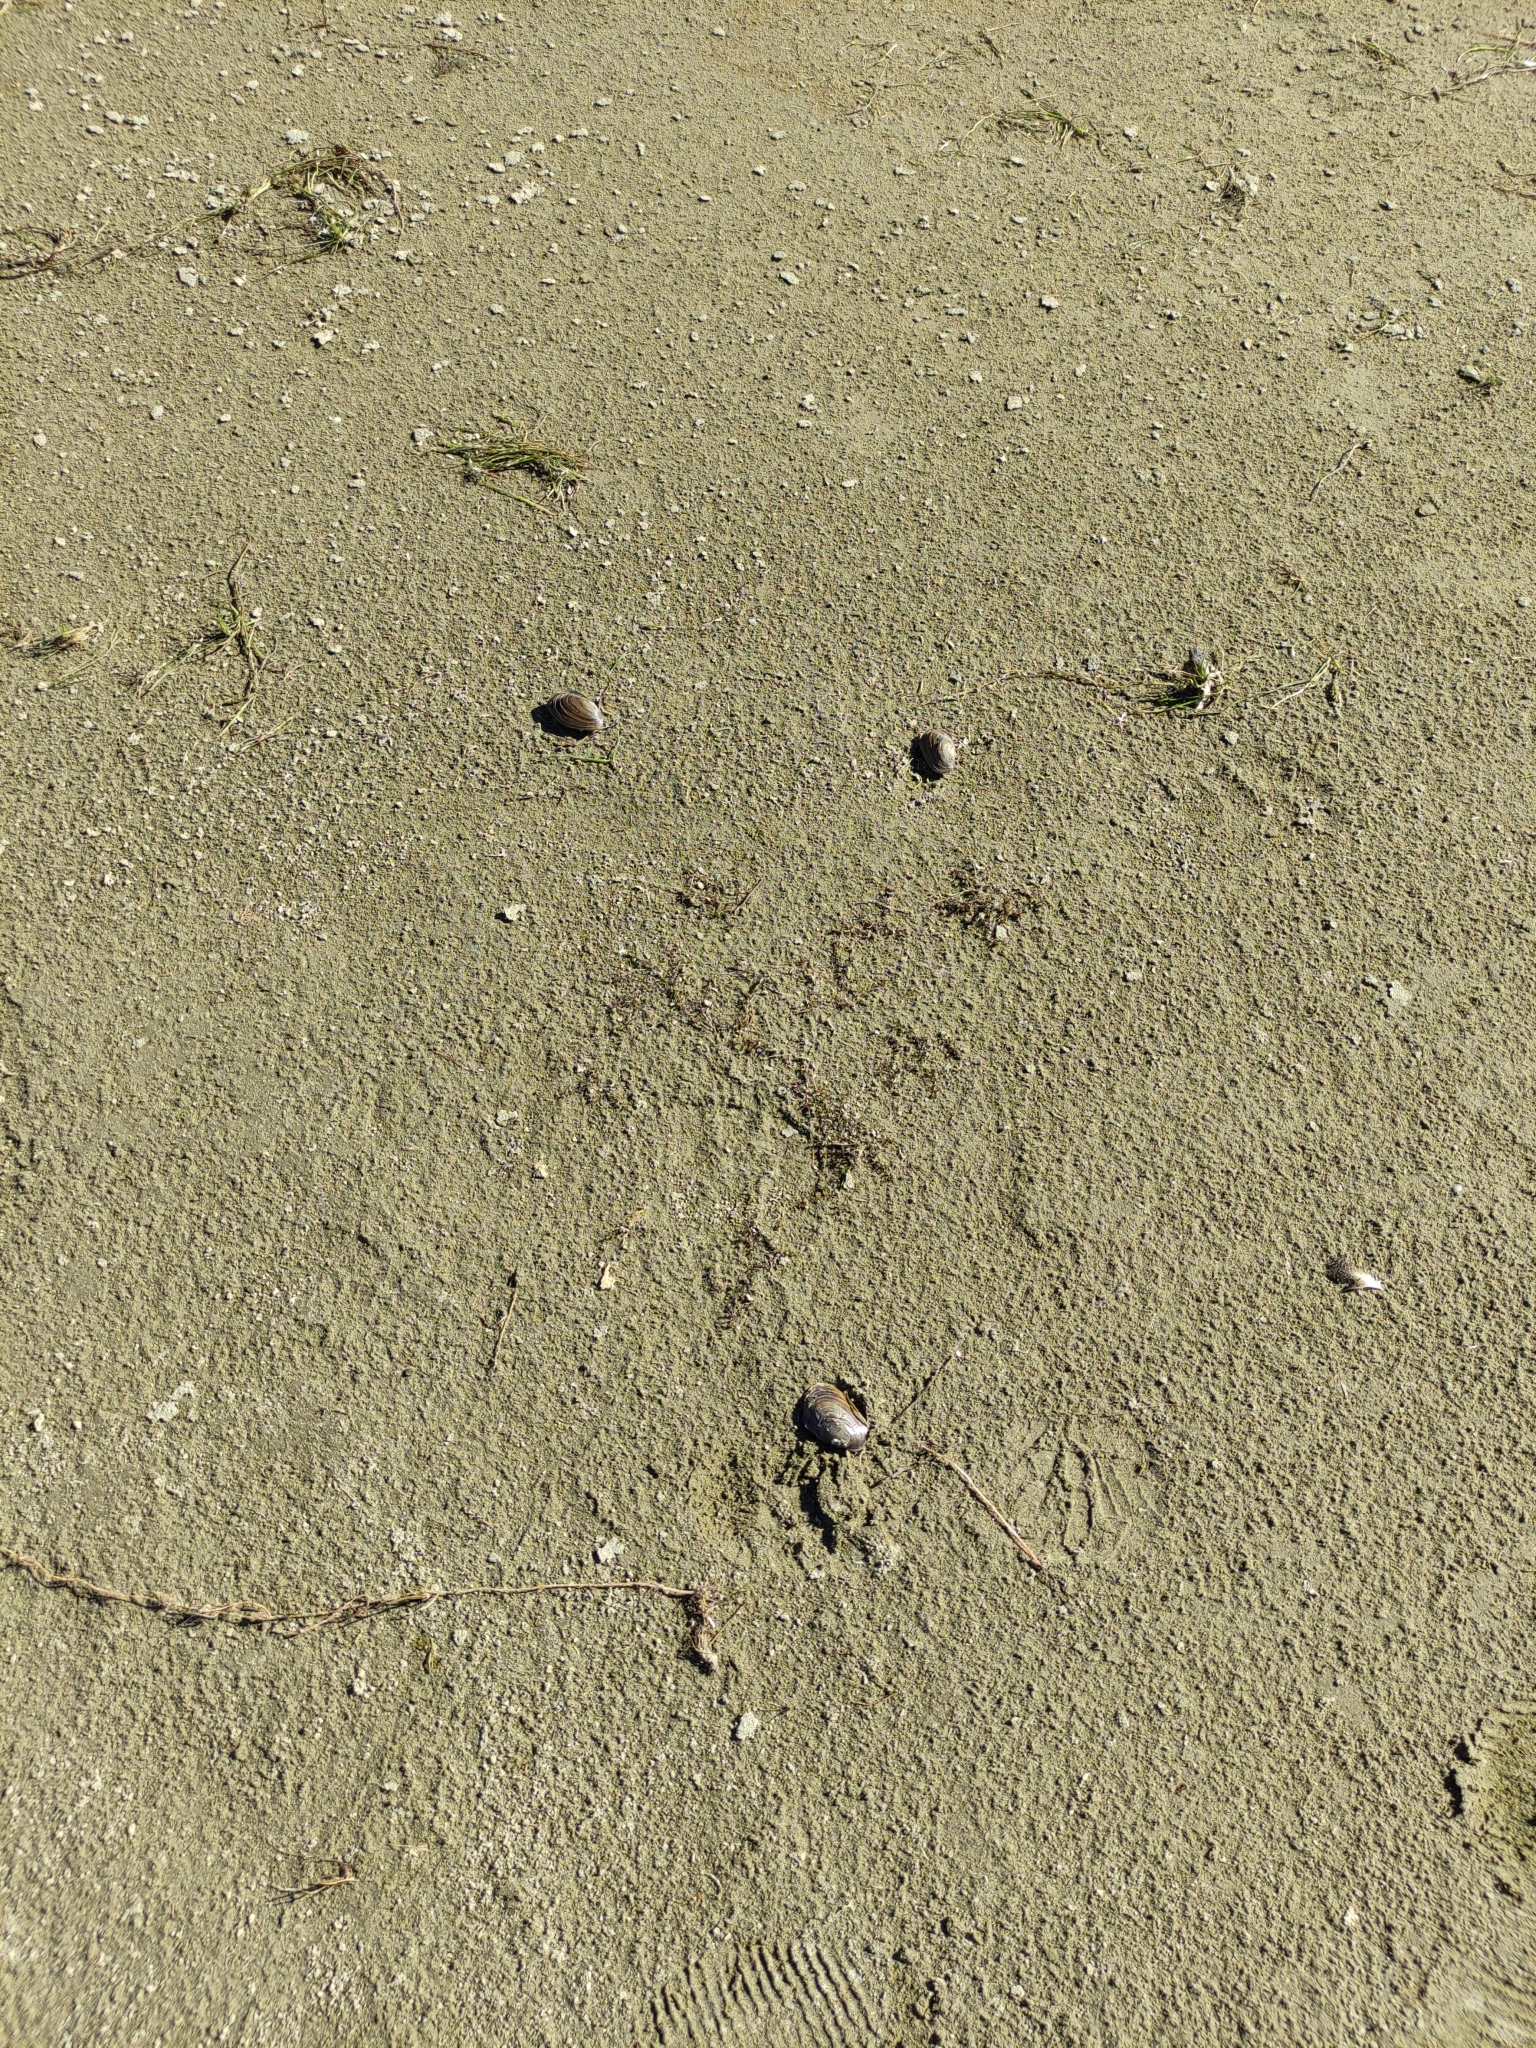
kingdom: Animalia
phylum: Mollusca
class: Bivalvia
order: Unionida
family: Hyriidae
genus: Echyridella
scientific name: Echyridella menziesii
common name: New zealand freshwater mussel
